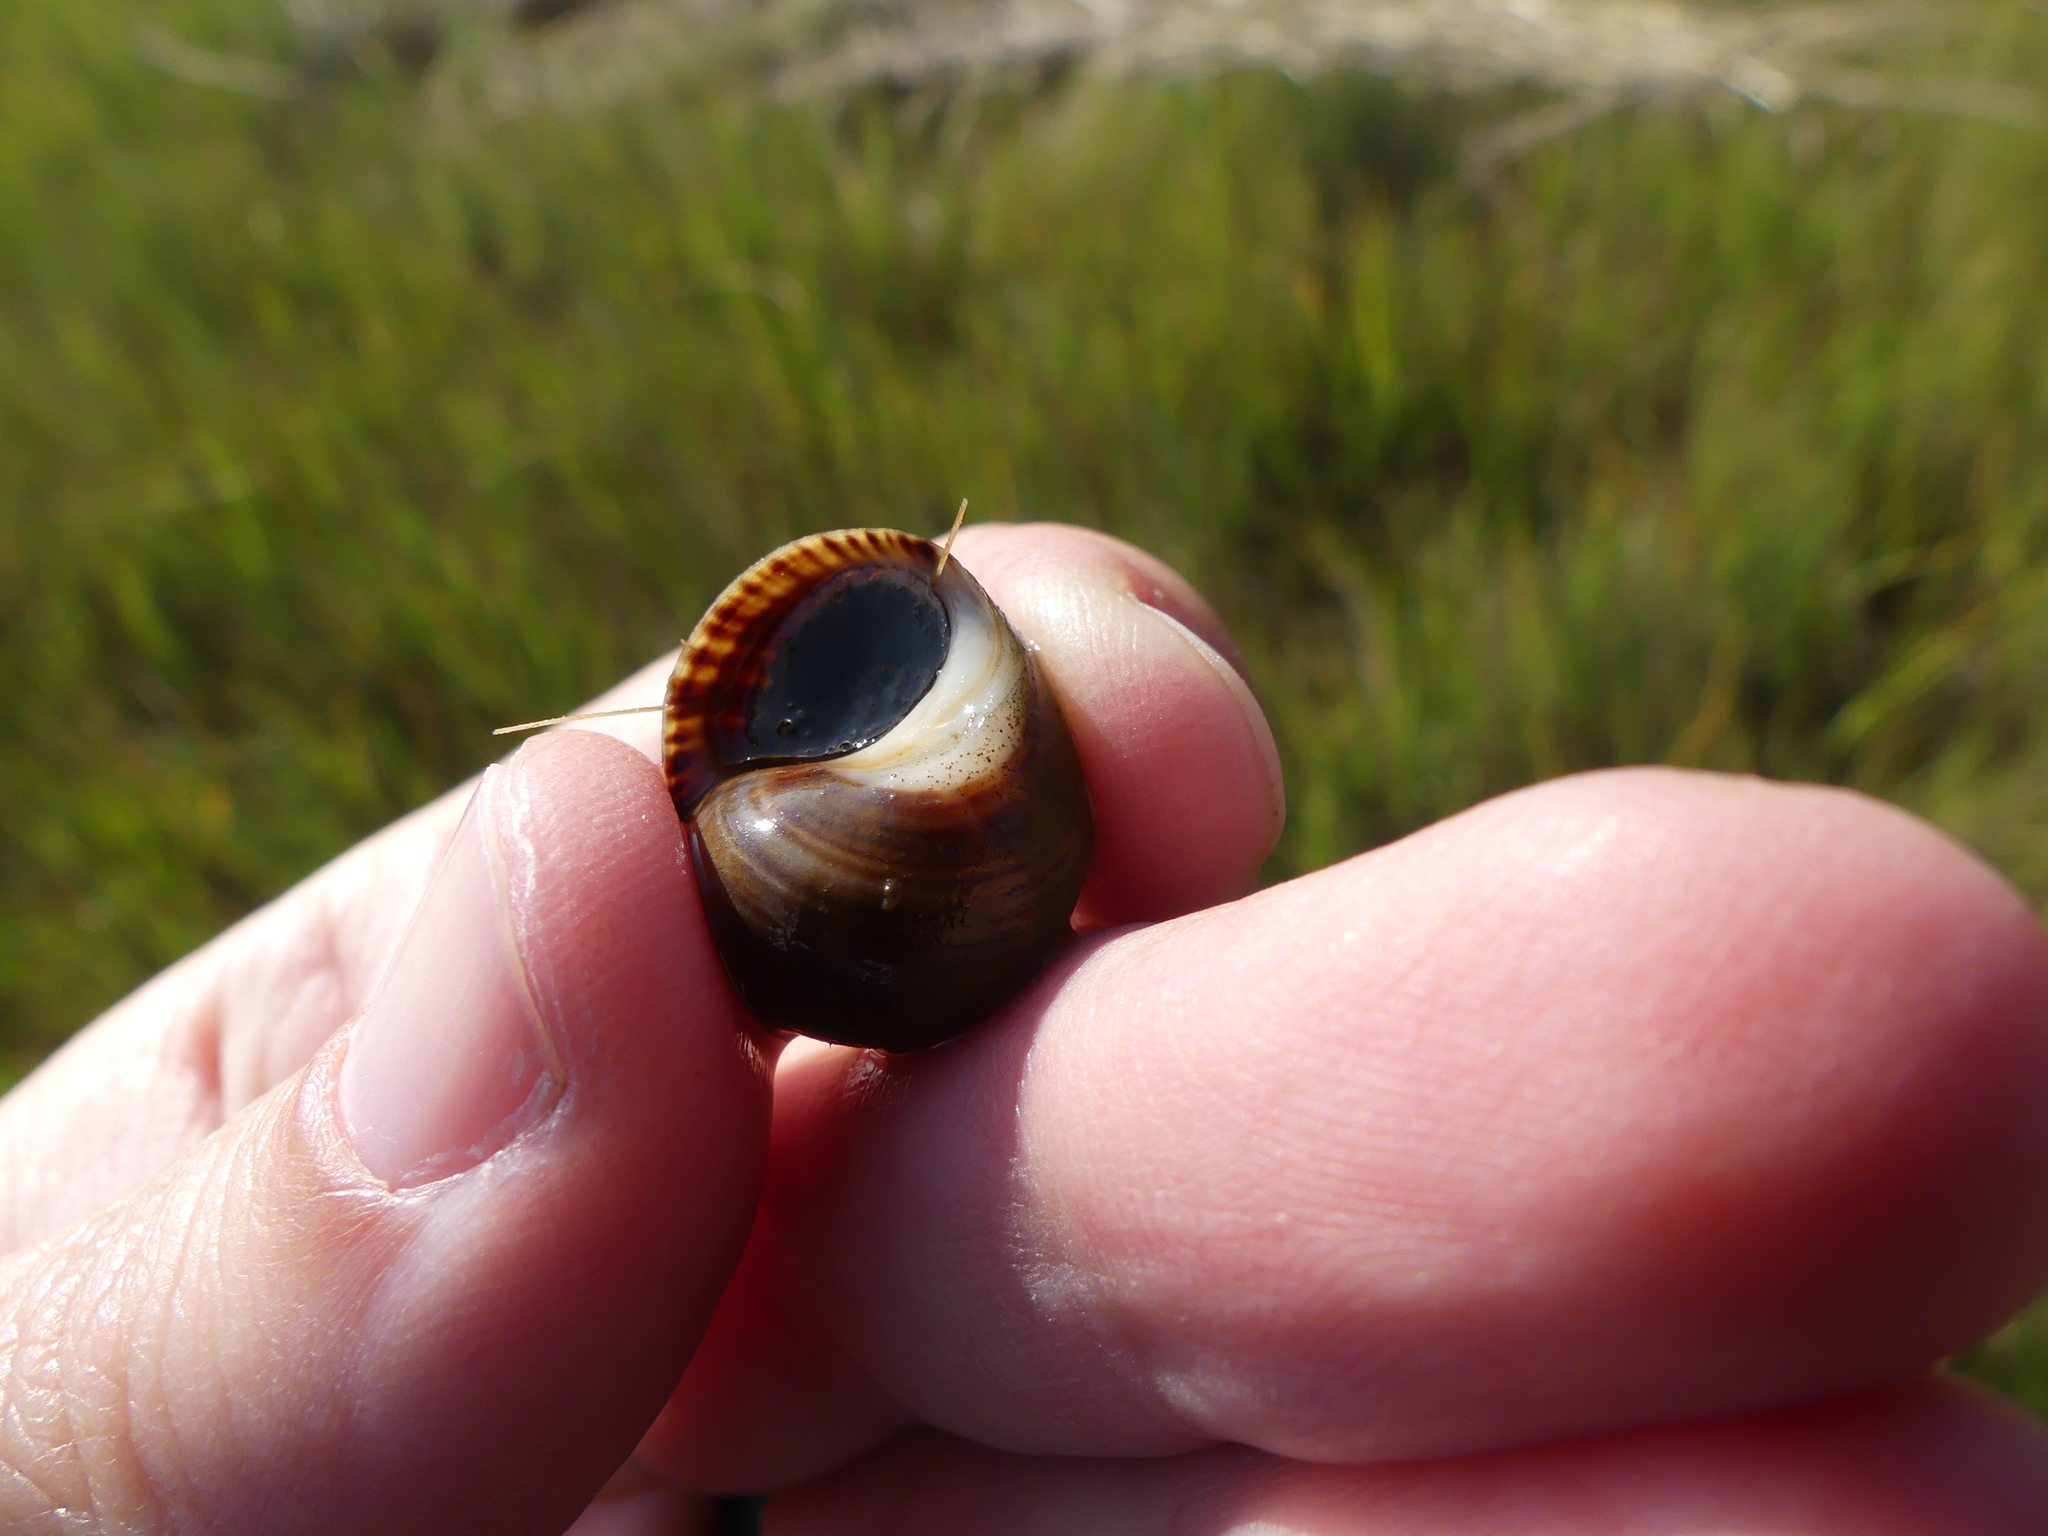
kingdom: Animalia
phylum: Mollusca
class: Gastropoda
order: Littorinimorpha
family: Littorinidae
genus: Littorina
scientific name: Littorina littorea
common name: Common periwinkle
